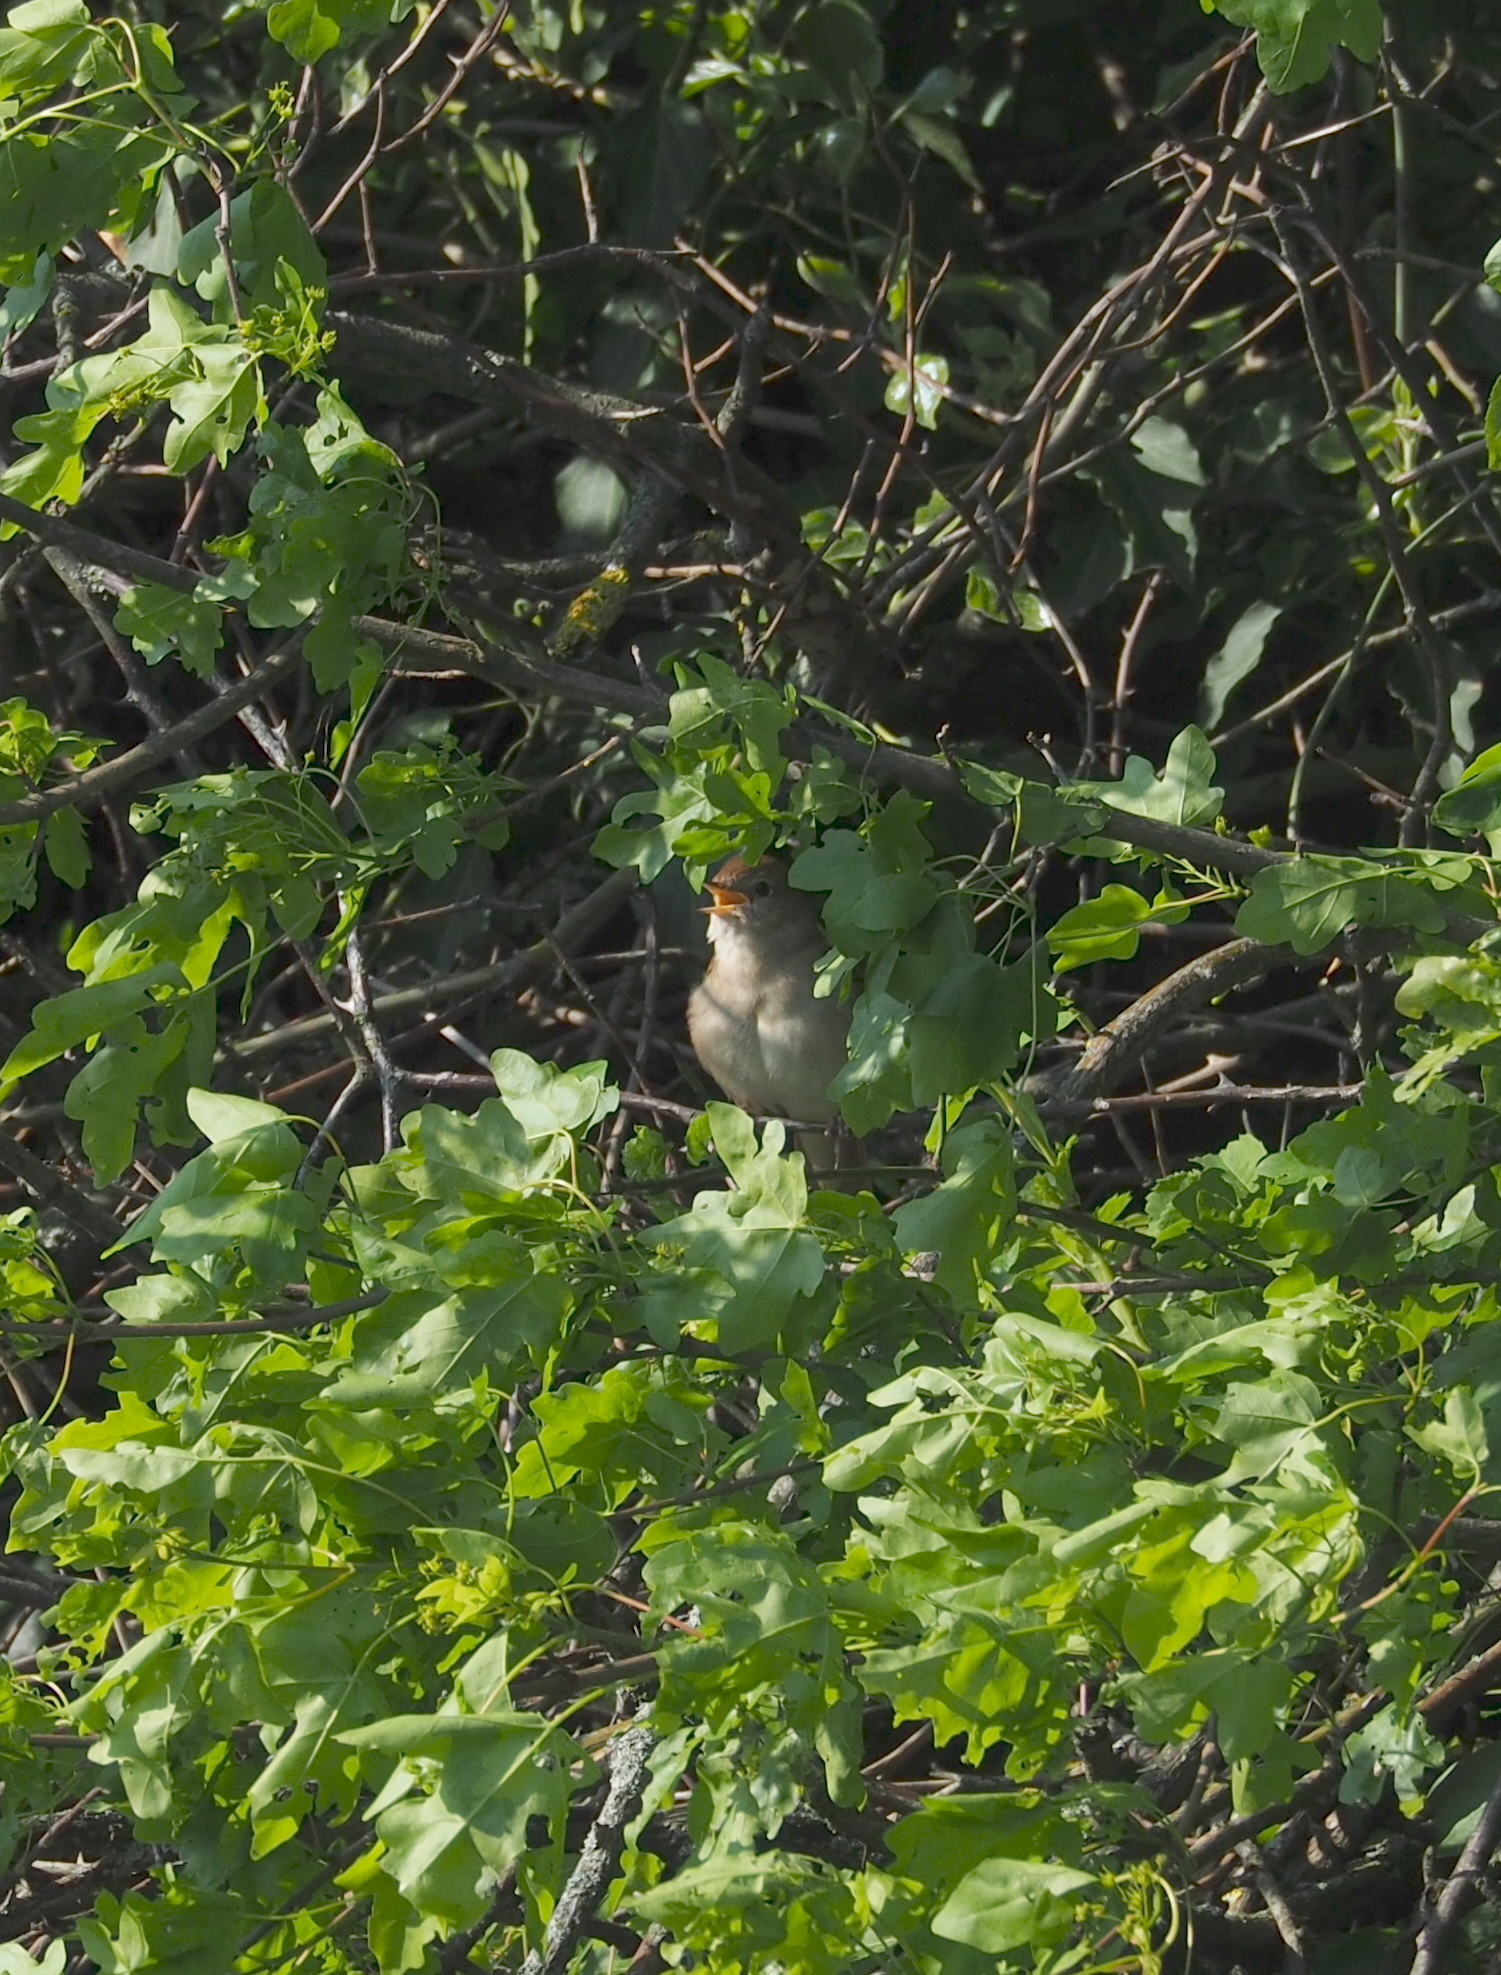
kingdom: Animalia
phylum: Chordata
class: Aves
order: Passeriformes
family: Muscicapidae
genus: Luscinia
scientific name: Luscinia megarhynchos
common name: Common nightingale
